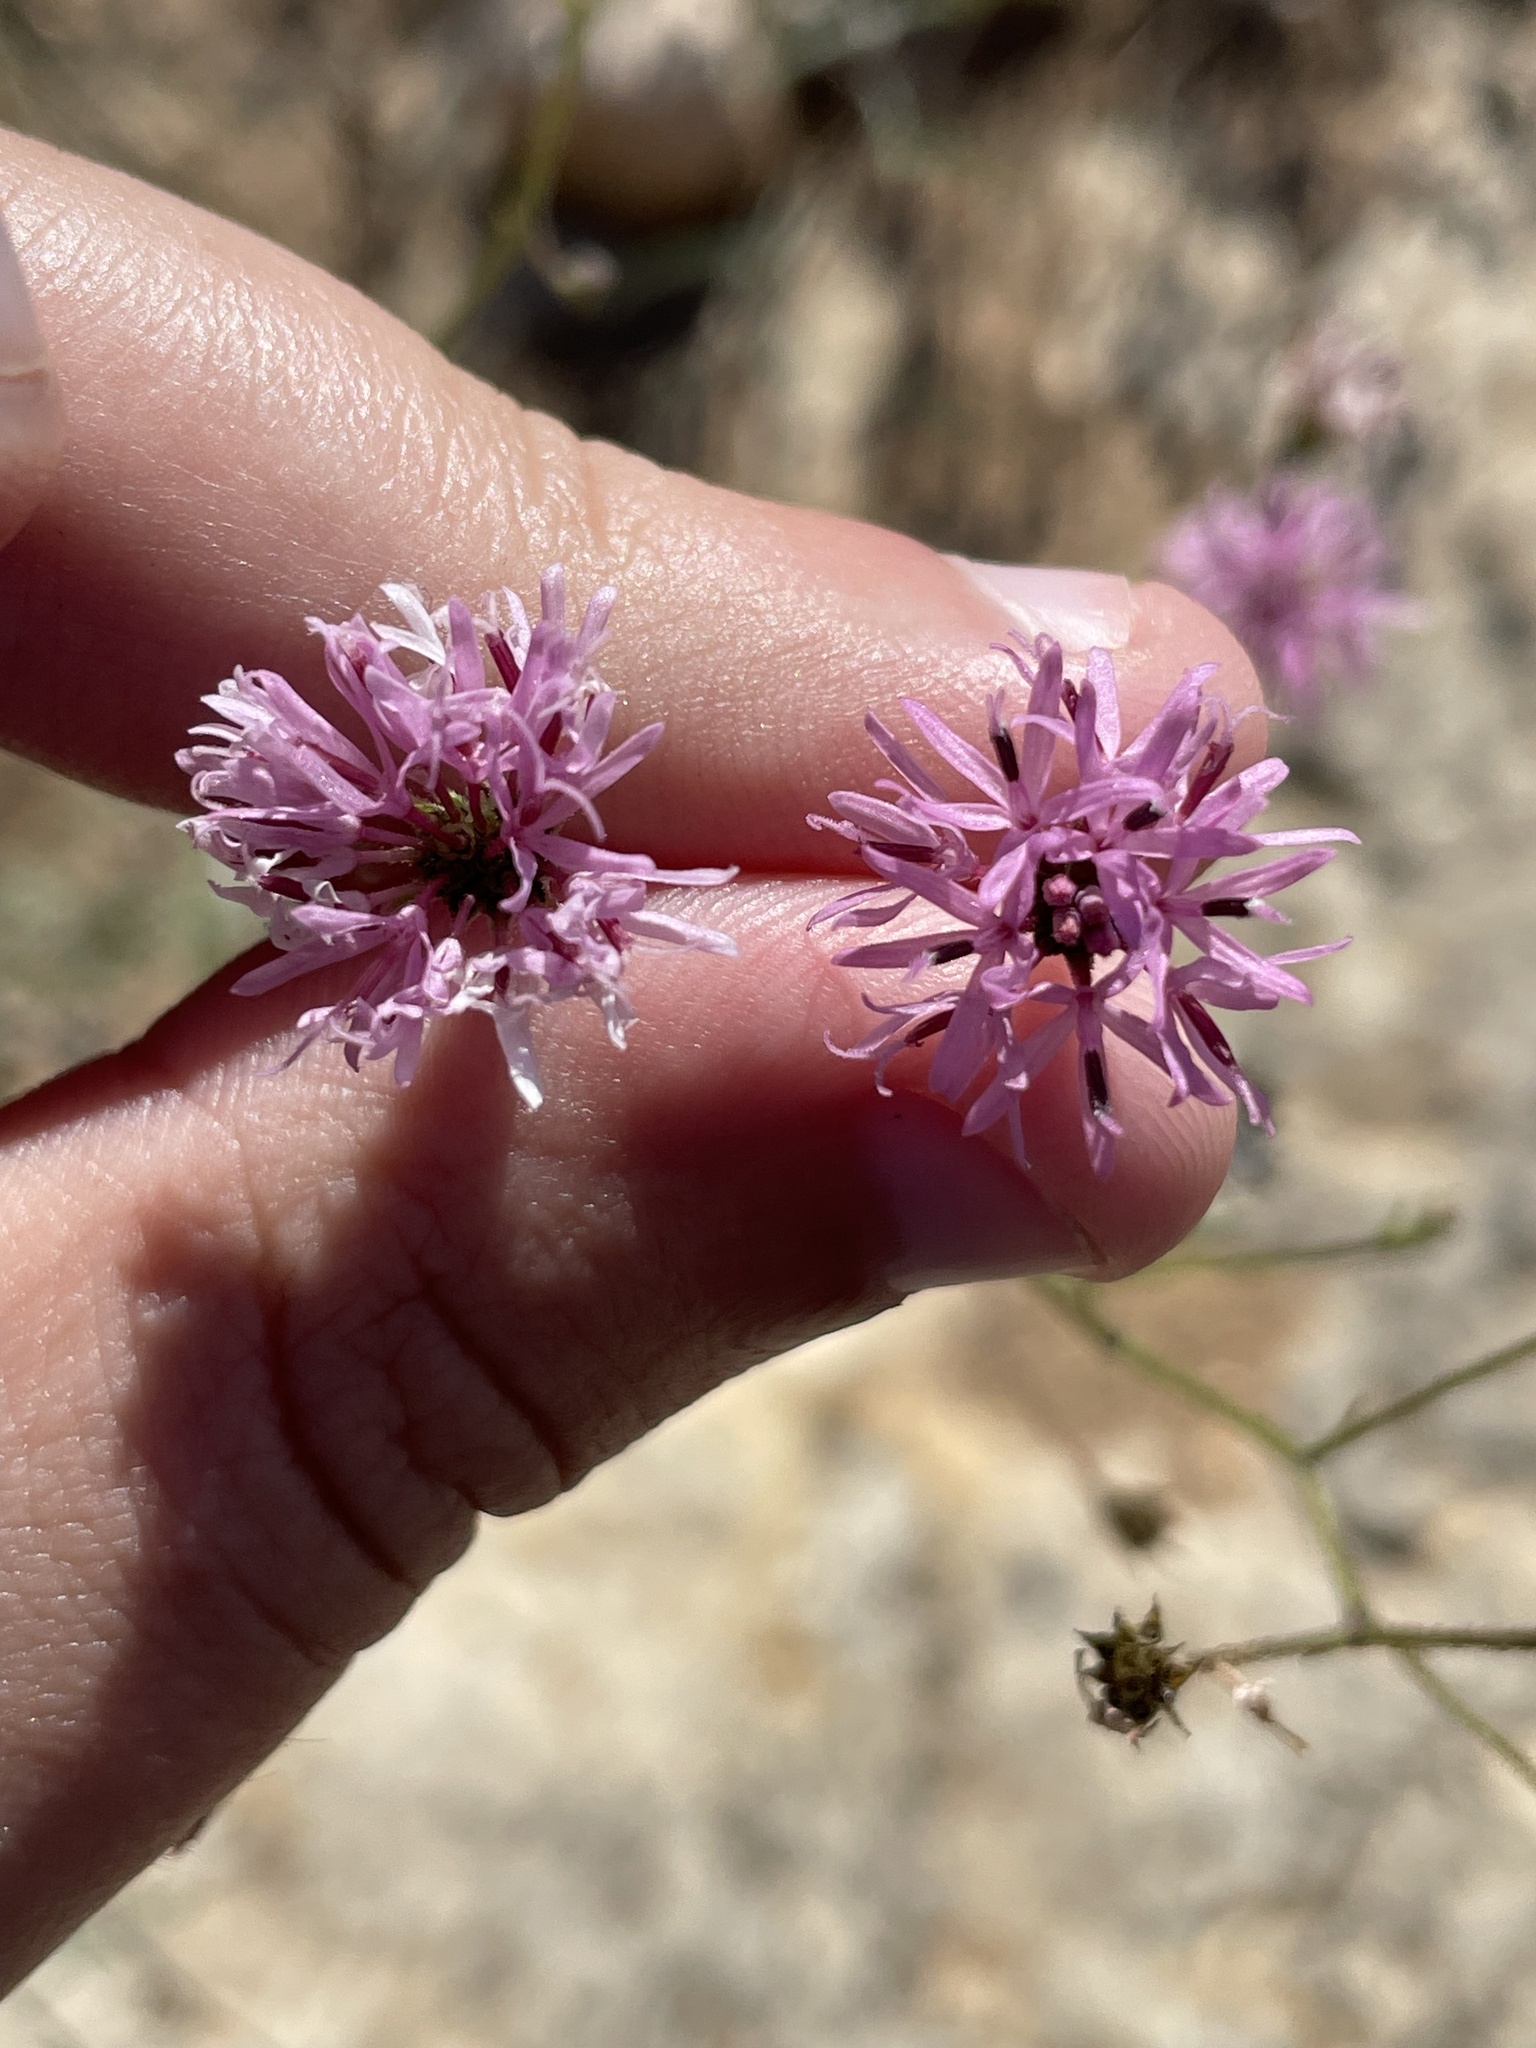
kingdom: Plantae
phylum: Tracheophyta
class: Magnoliopsida
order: Asterales
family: Asteraceae
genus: Palafoxia
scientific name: Palafoxia callosa
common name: Small palafox
